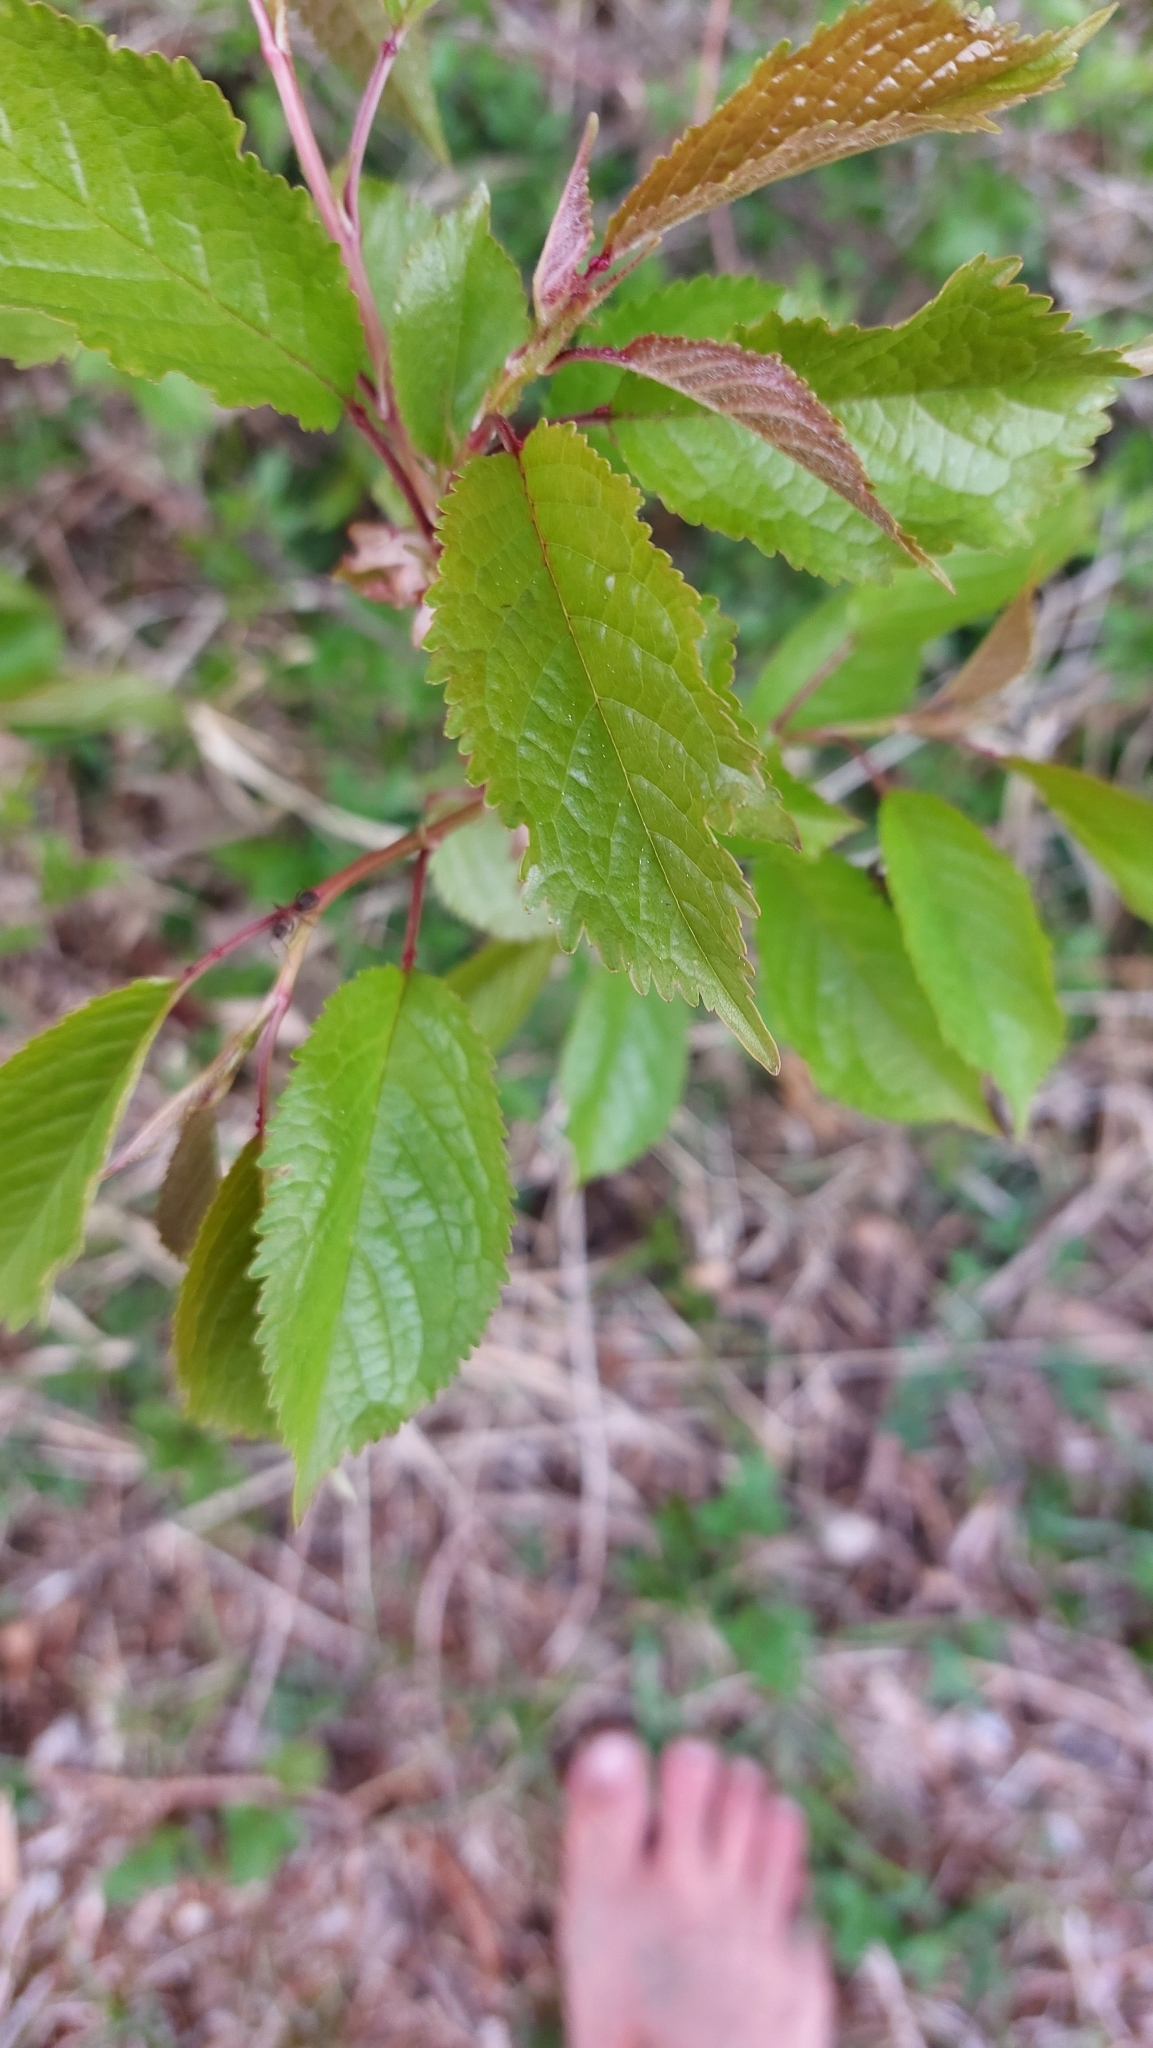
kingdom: Plantae
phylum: Tracheophyta
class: Magnoliopsida
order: Rosales
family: Rosaceae
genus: Prunus
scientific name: Prunus avium
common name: Sweet cherry
